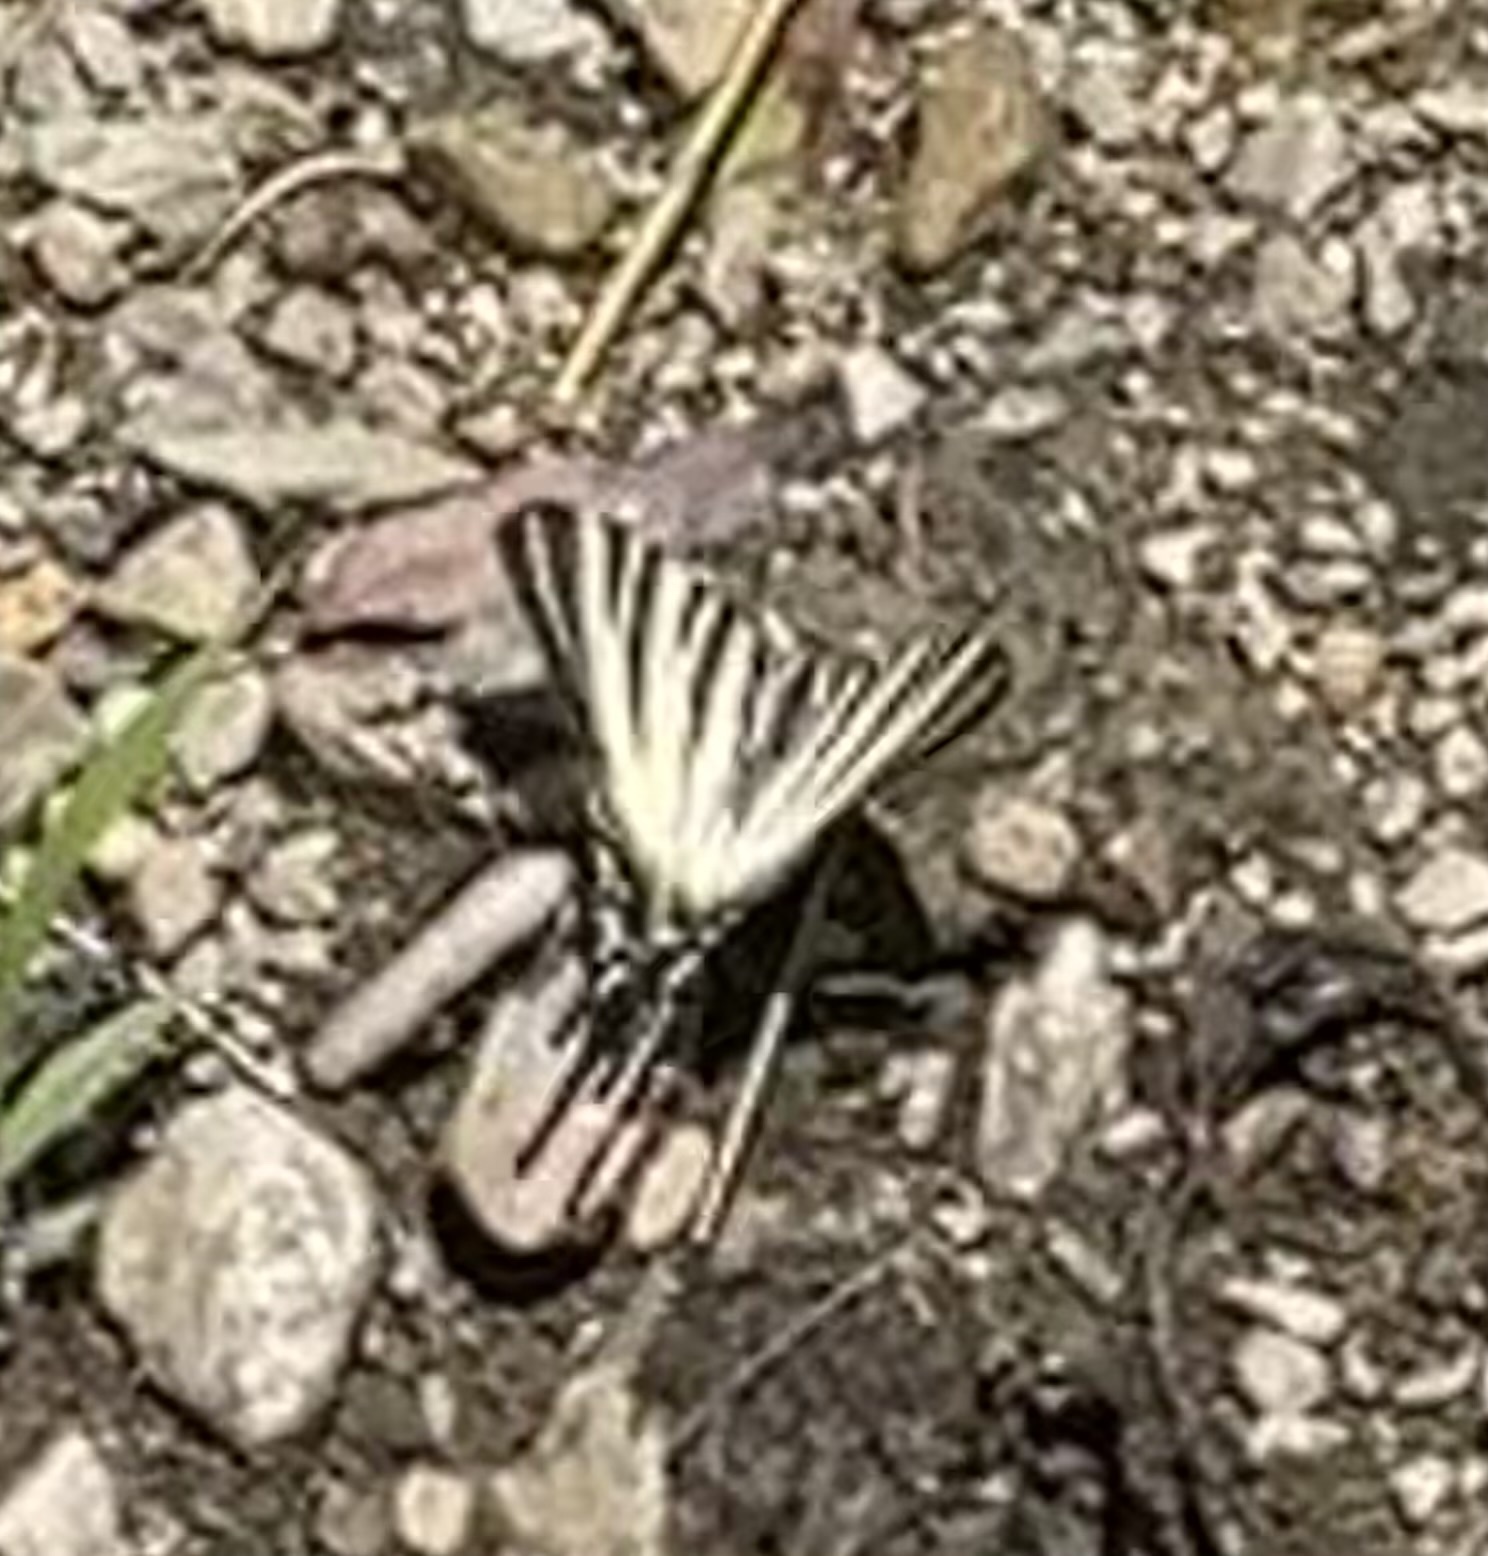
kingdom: Animalia
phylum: Arthropoda
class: Insecta
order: Lepidoptera
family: Papilionidae
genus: Iphiclides
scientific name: Iphiclides podalirius
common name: Scarce swallowtail
